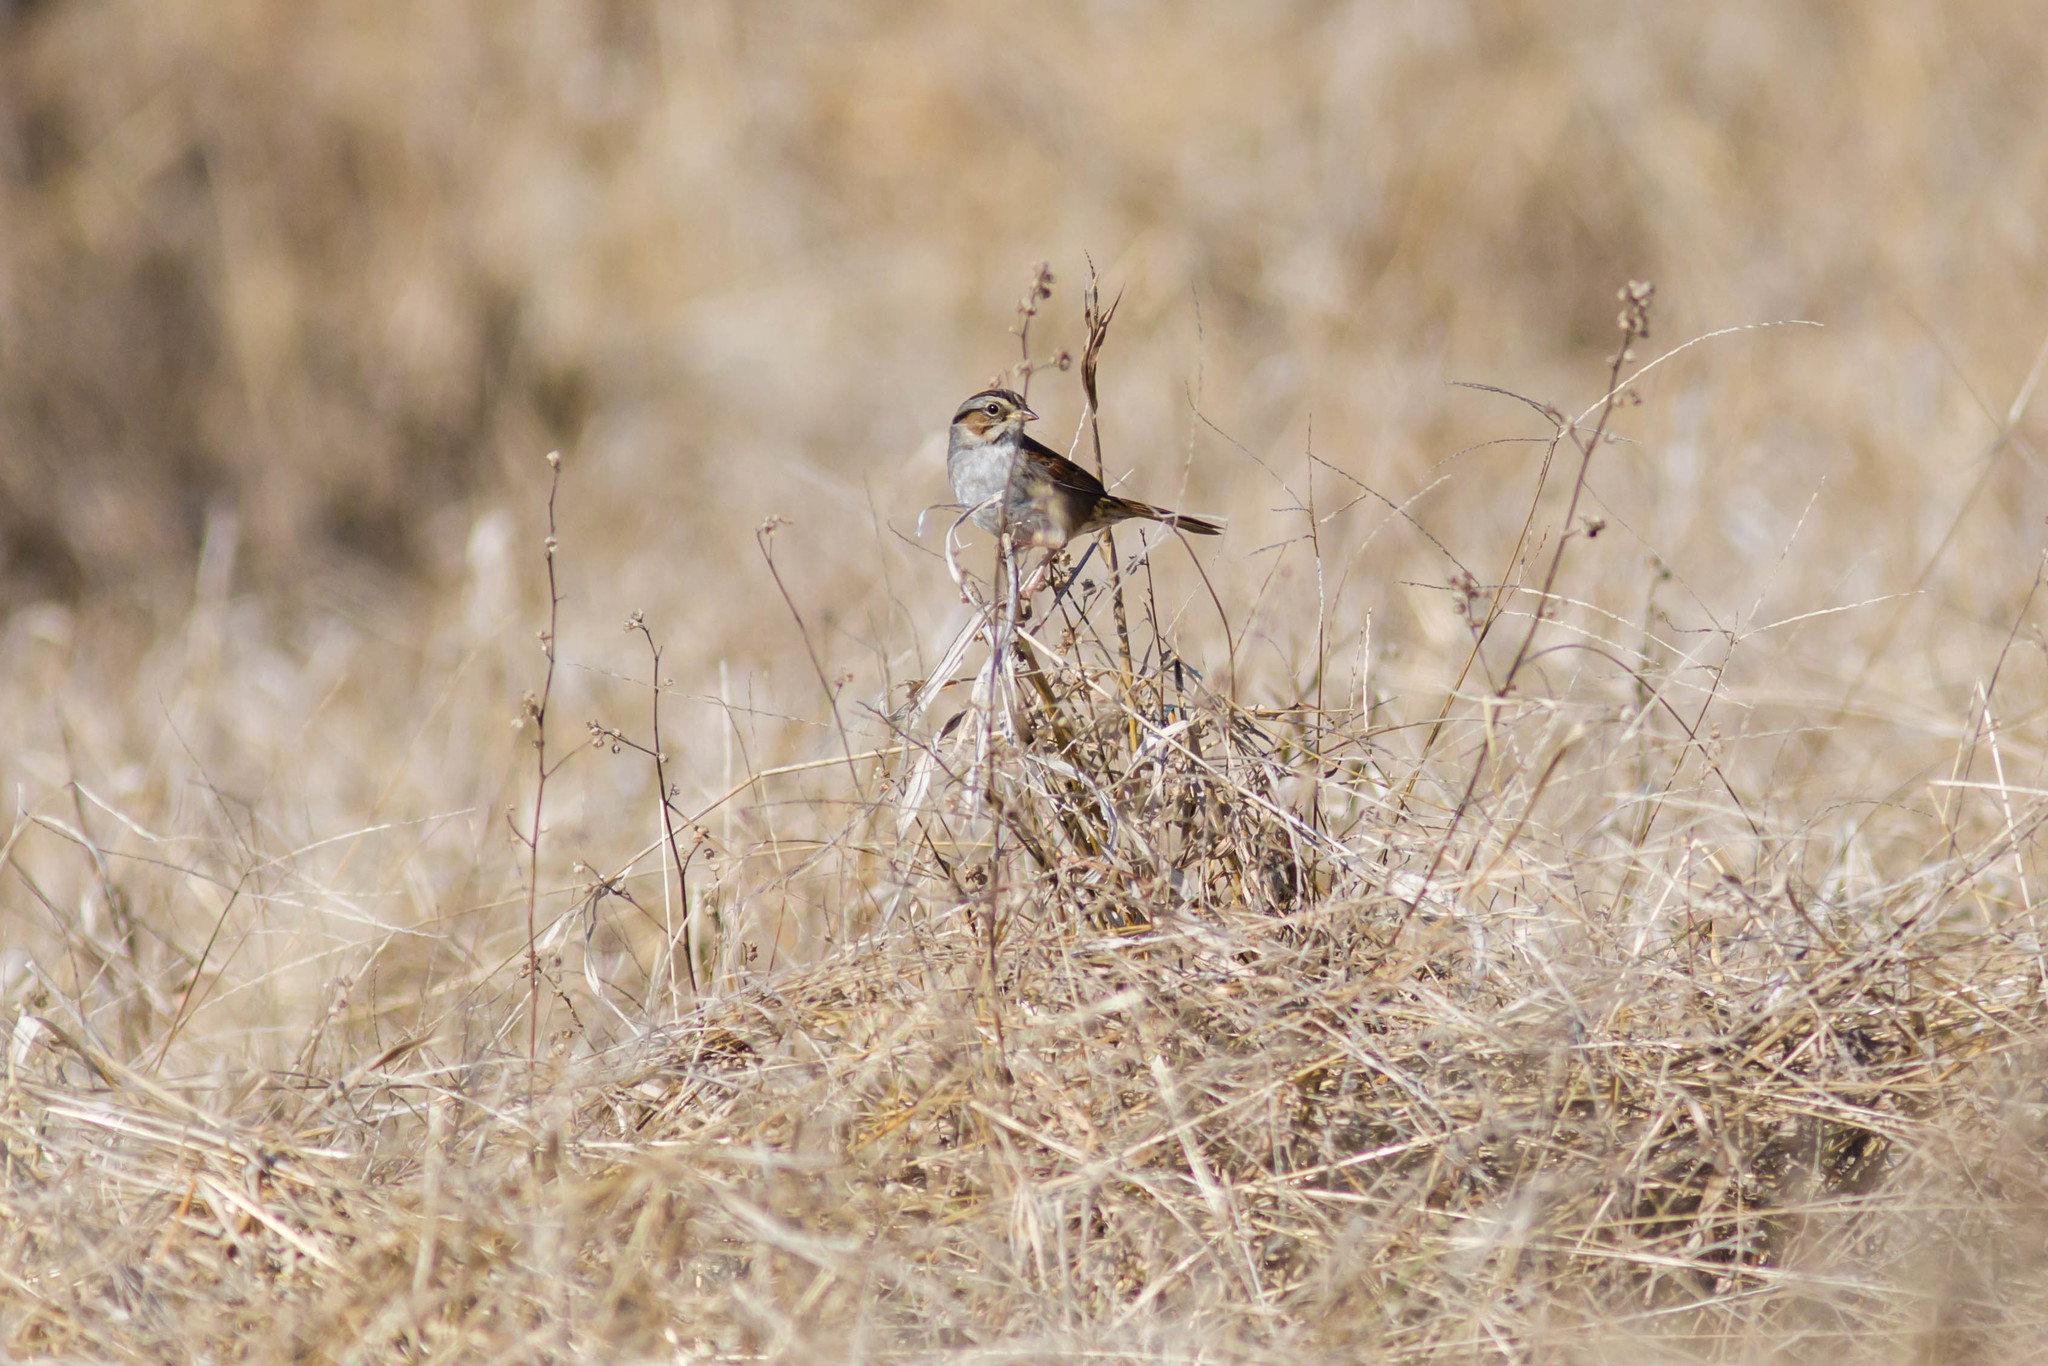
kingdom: Animalia
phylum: Chordata
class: Aves
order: Passeriformes
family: Passerellidae
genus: Melospiza
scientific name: Melospiza georgiana
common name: Swamp sparrow
